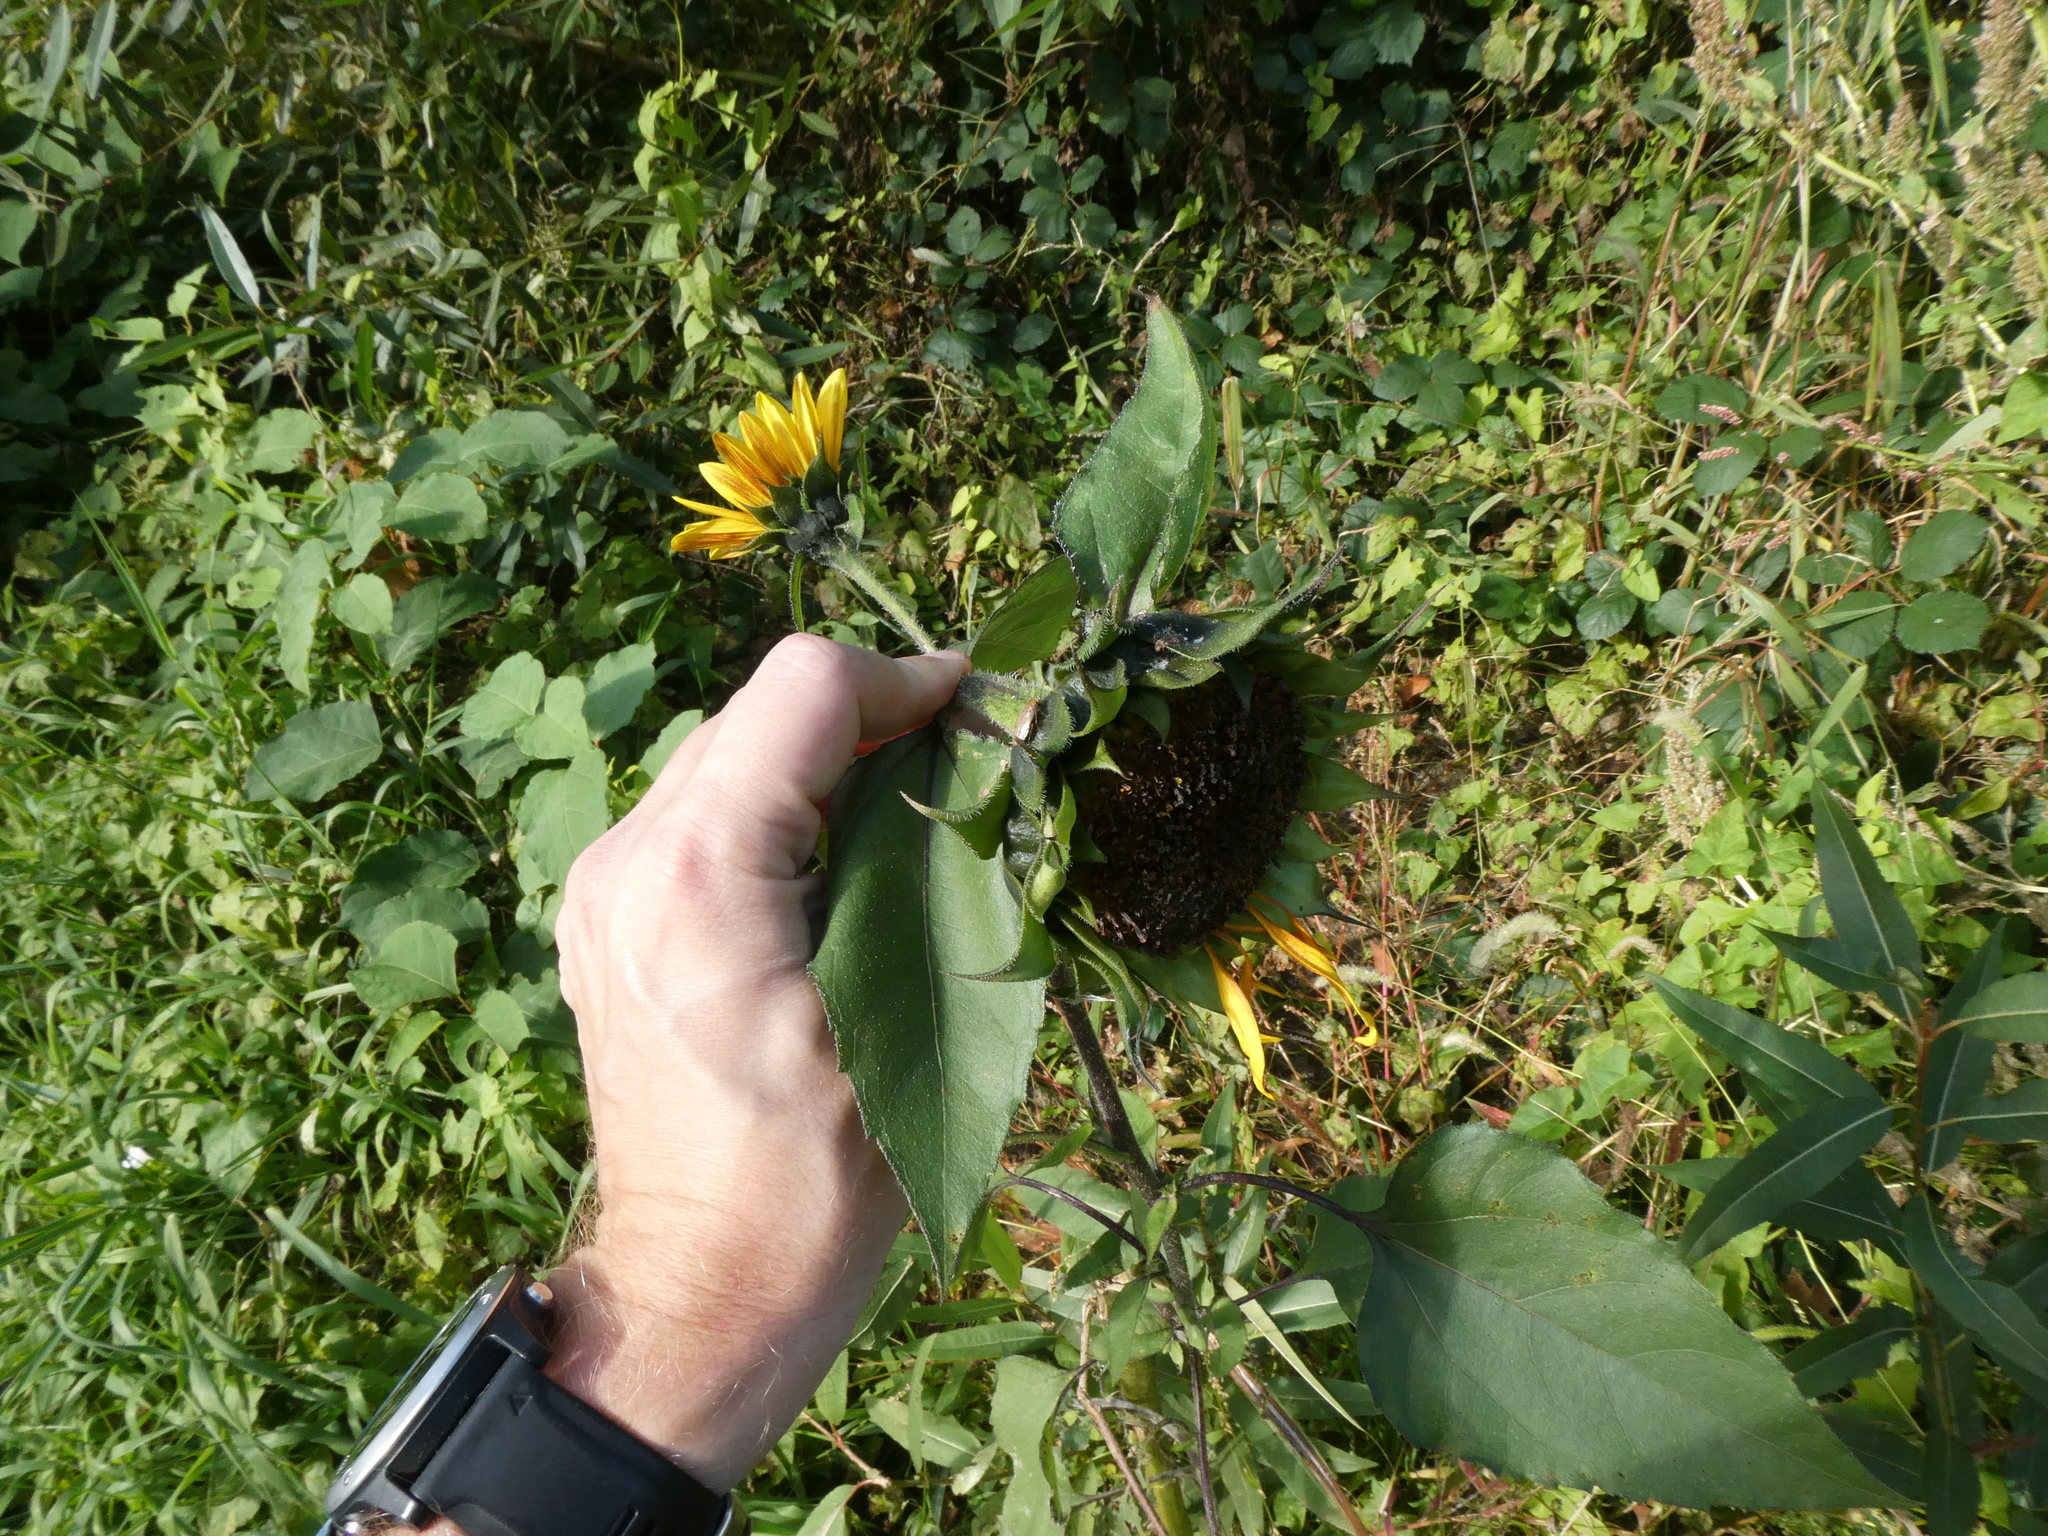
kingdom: Plantae
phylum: Tracheophyta
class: Magnoliopsida
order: Asterales
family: Asteraceae
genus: Helianthus
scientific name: Helianthus annuus
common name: Sunflower
